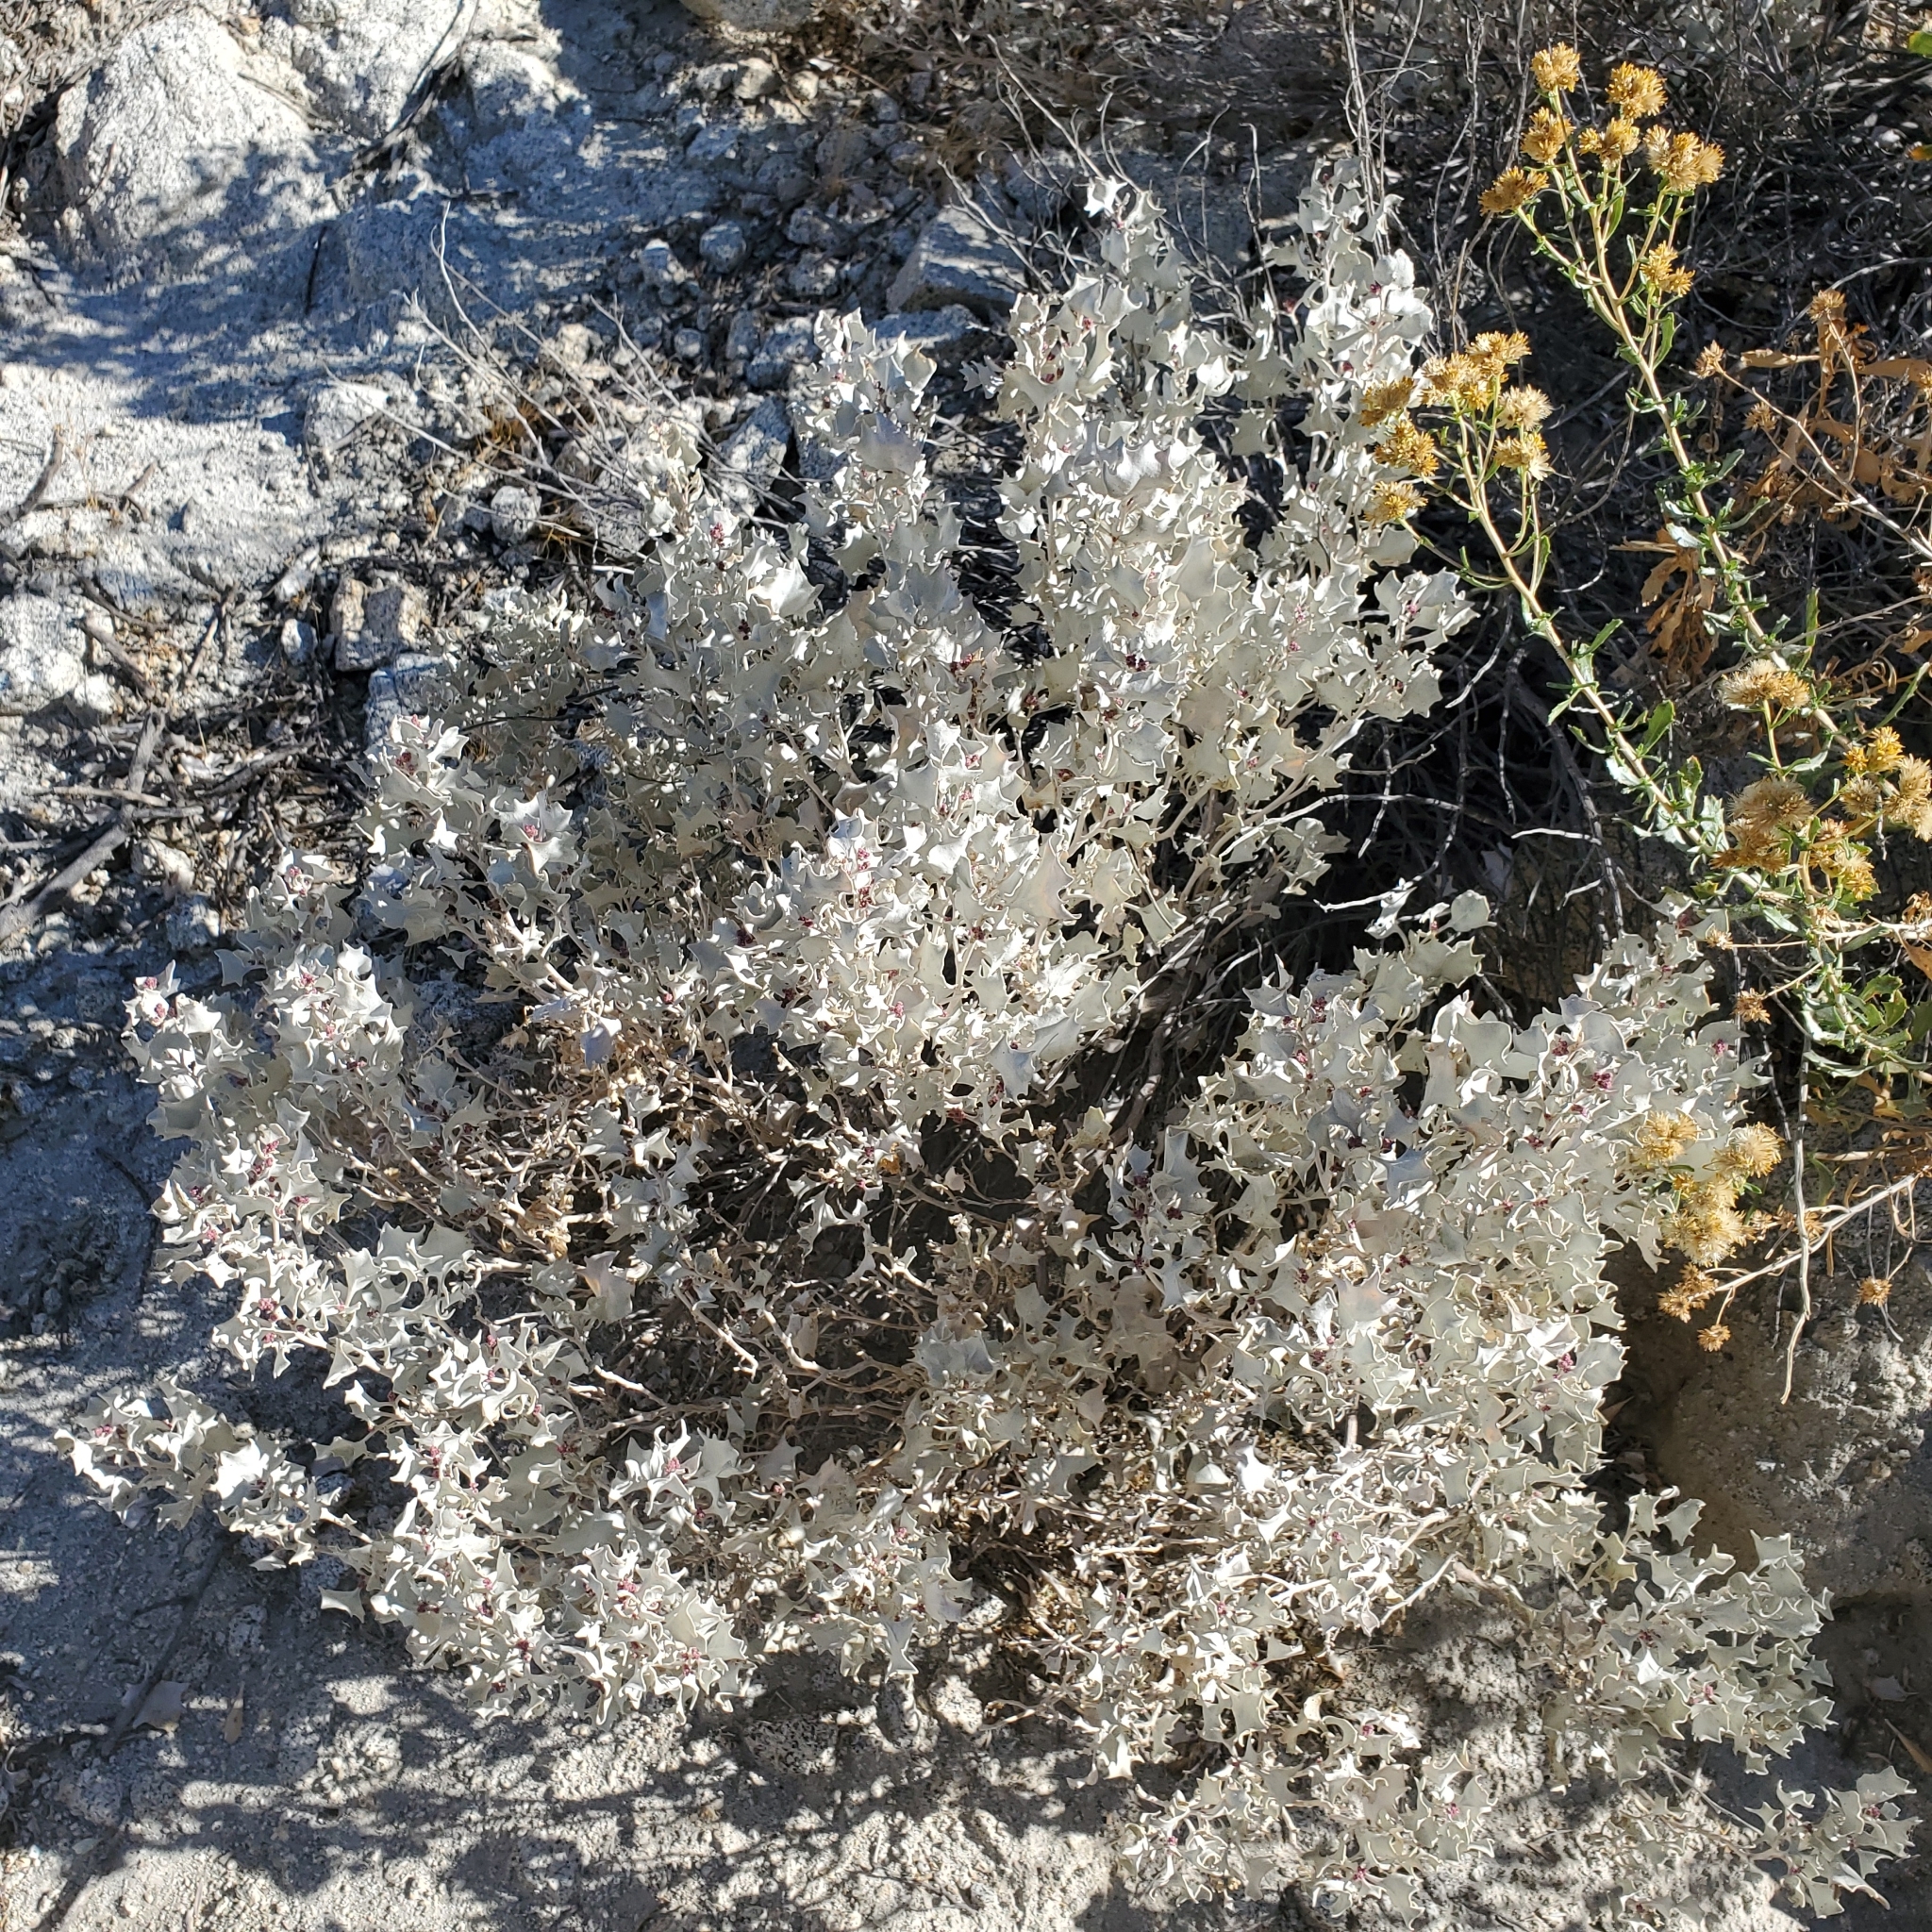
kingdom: Plantae
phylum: Tracheophyta
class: Magnoliopsida
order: Caryophyllales
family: Amaranthaceae
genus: Atriplex
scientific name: Atriplex hymenelytra
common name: Desert-holly
